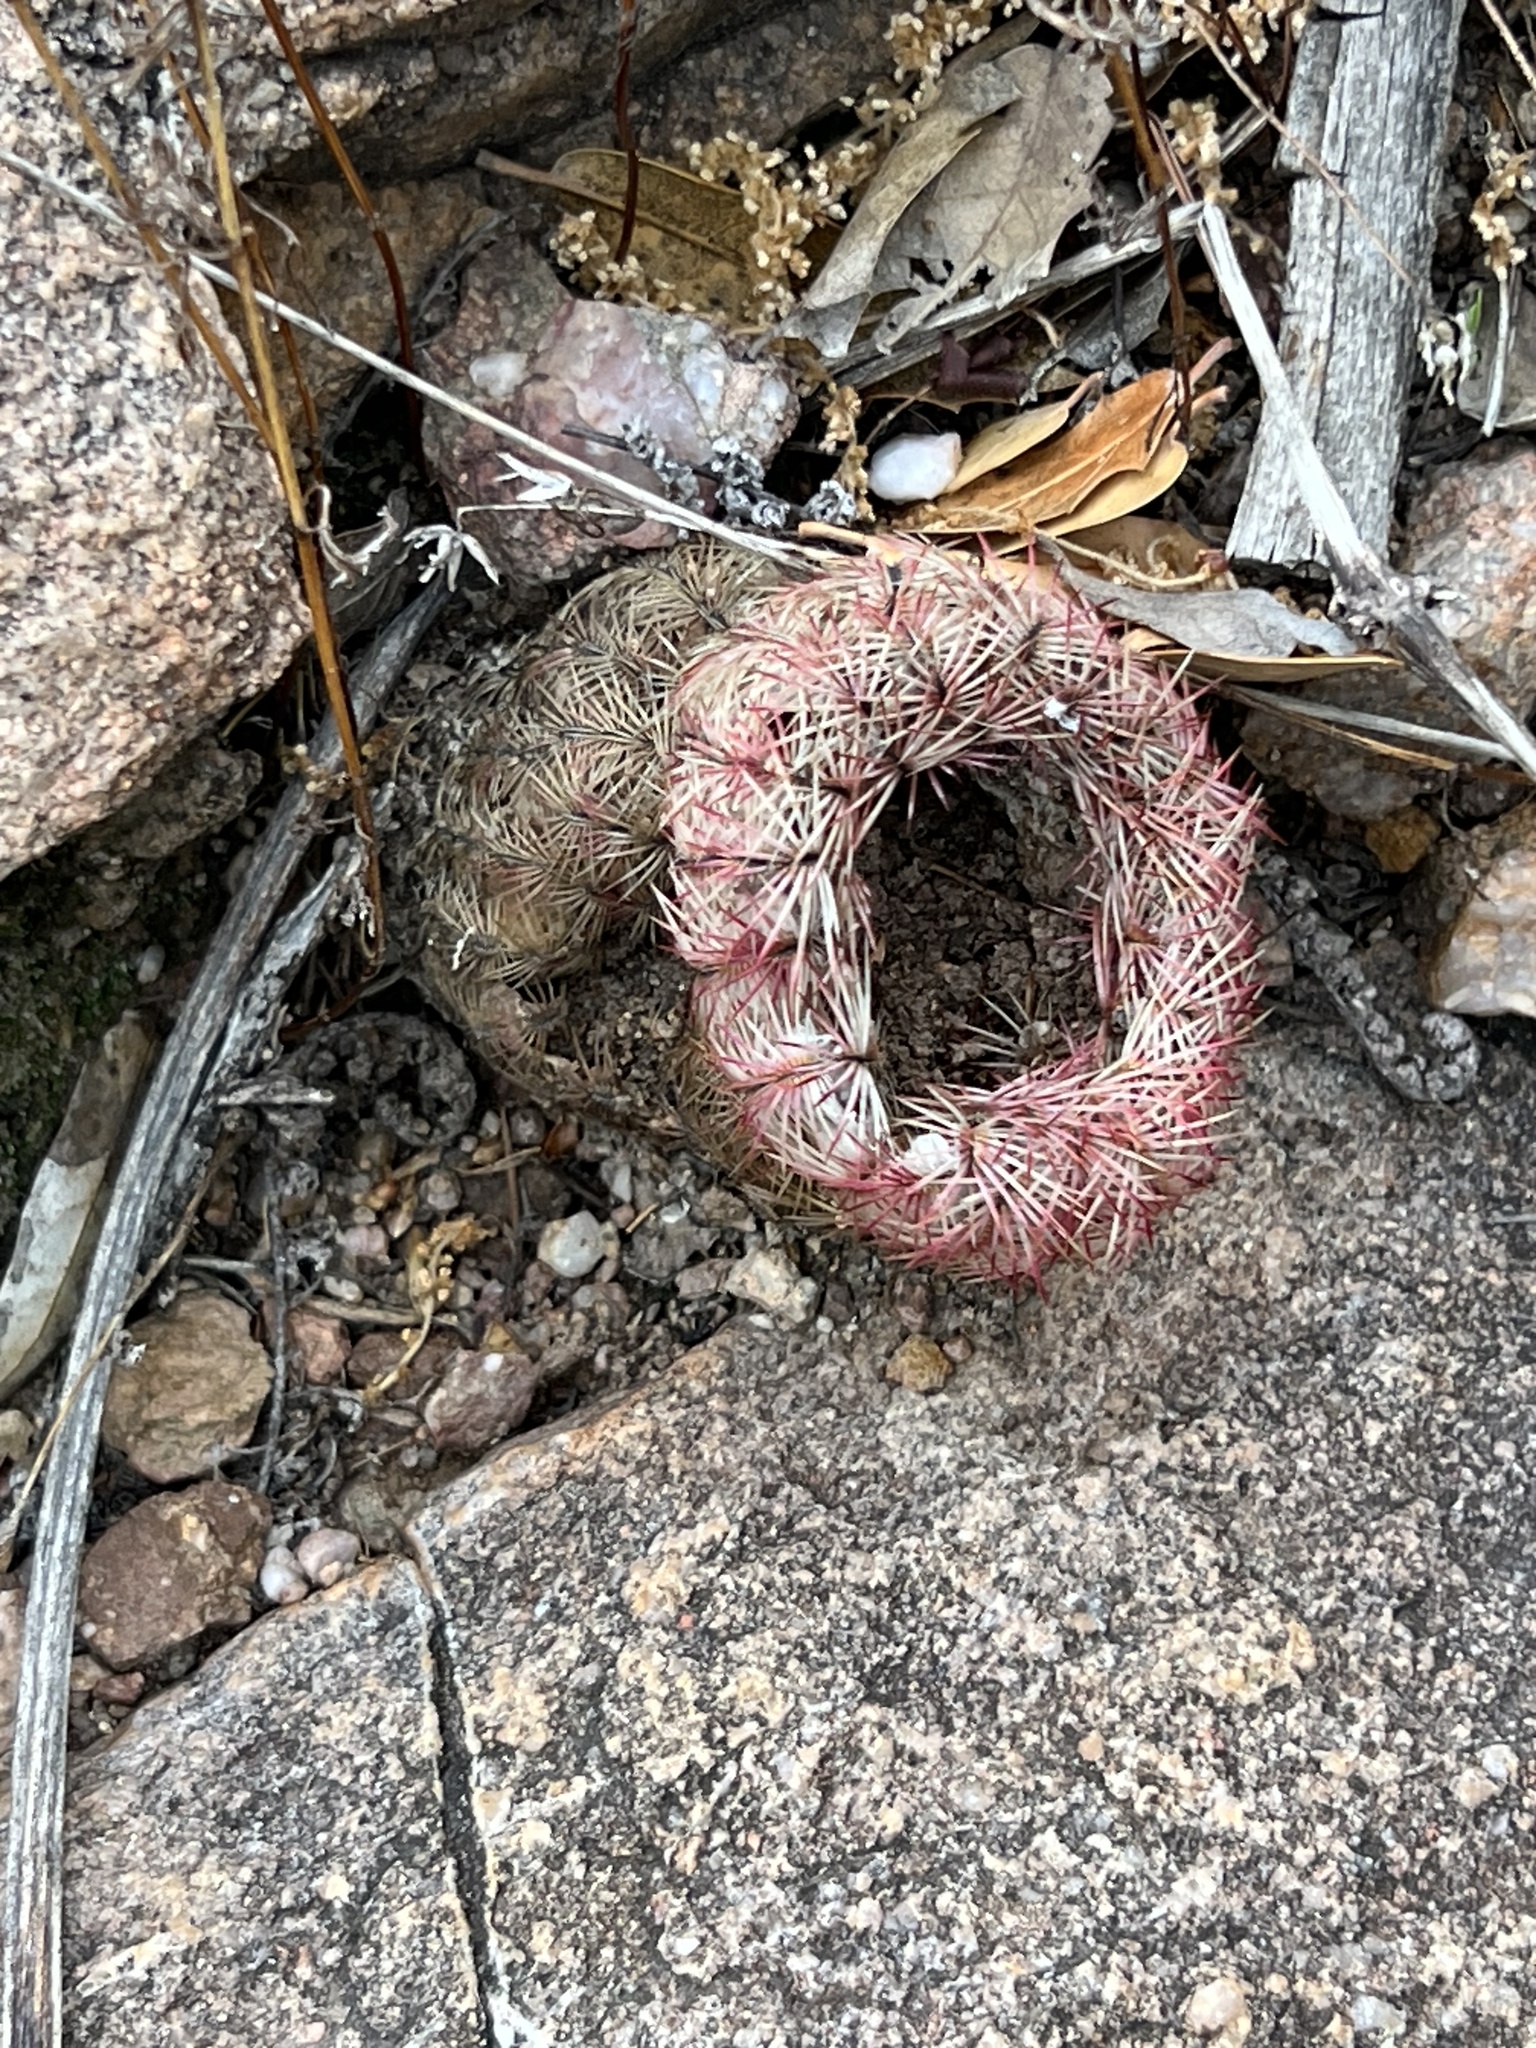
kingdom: Plantae
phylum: Tracheophyta
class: Magnoliopsida
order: Caryophyllales
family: Cactaceae
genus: Echinocereus
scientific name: Echinocereus rigidissimus
